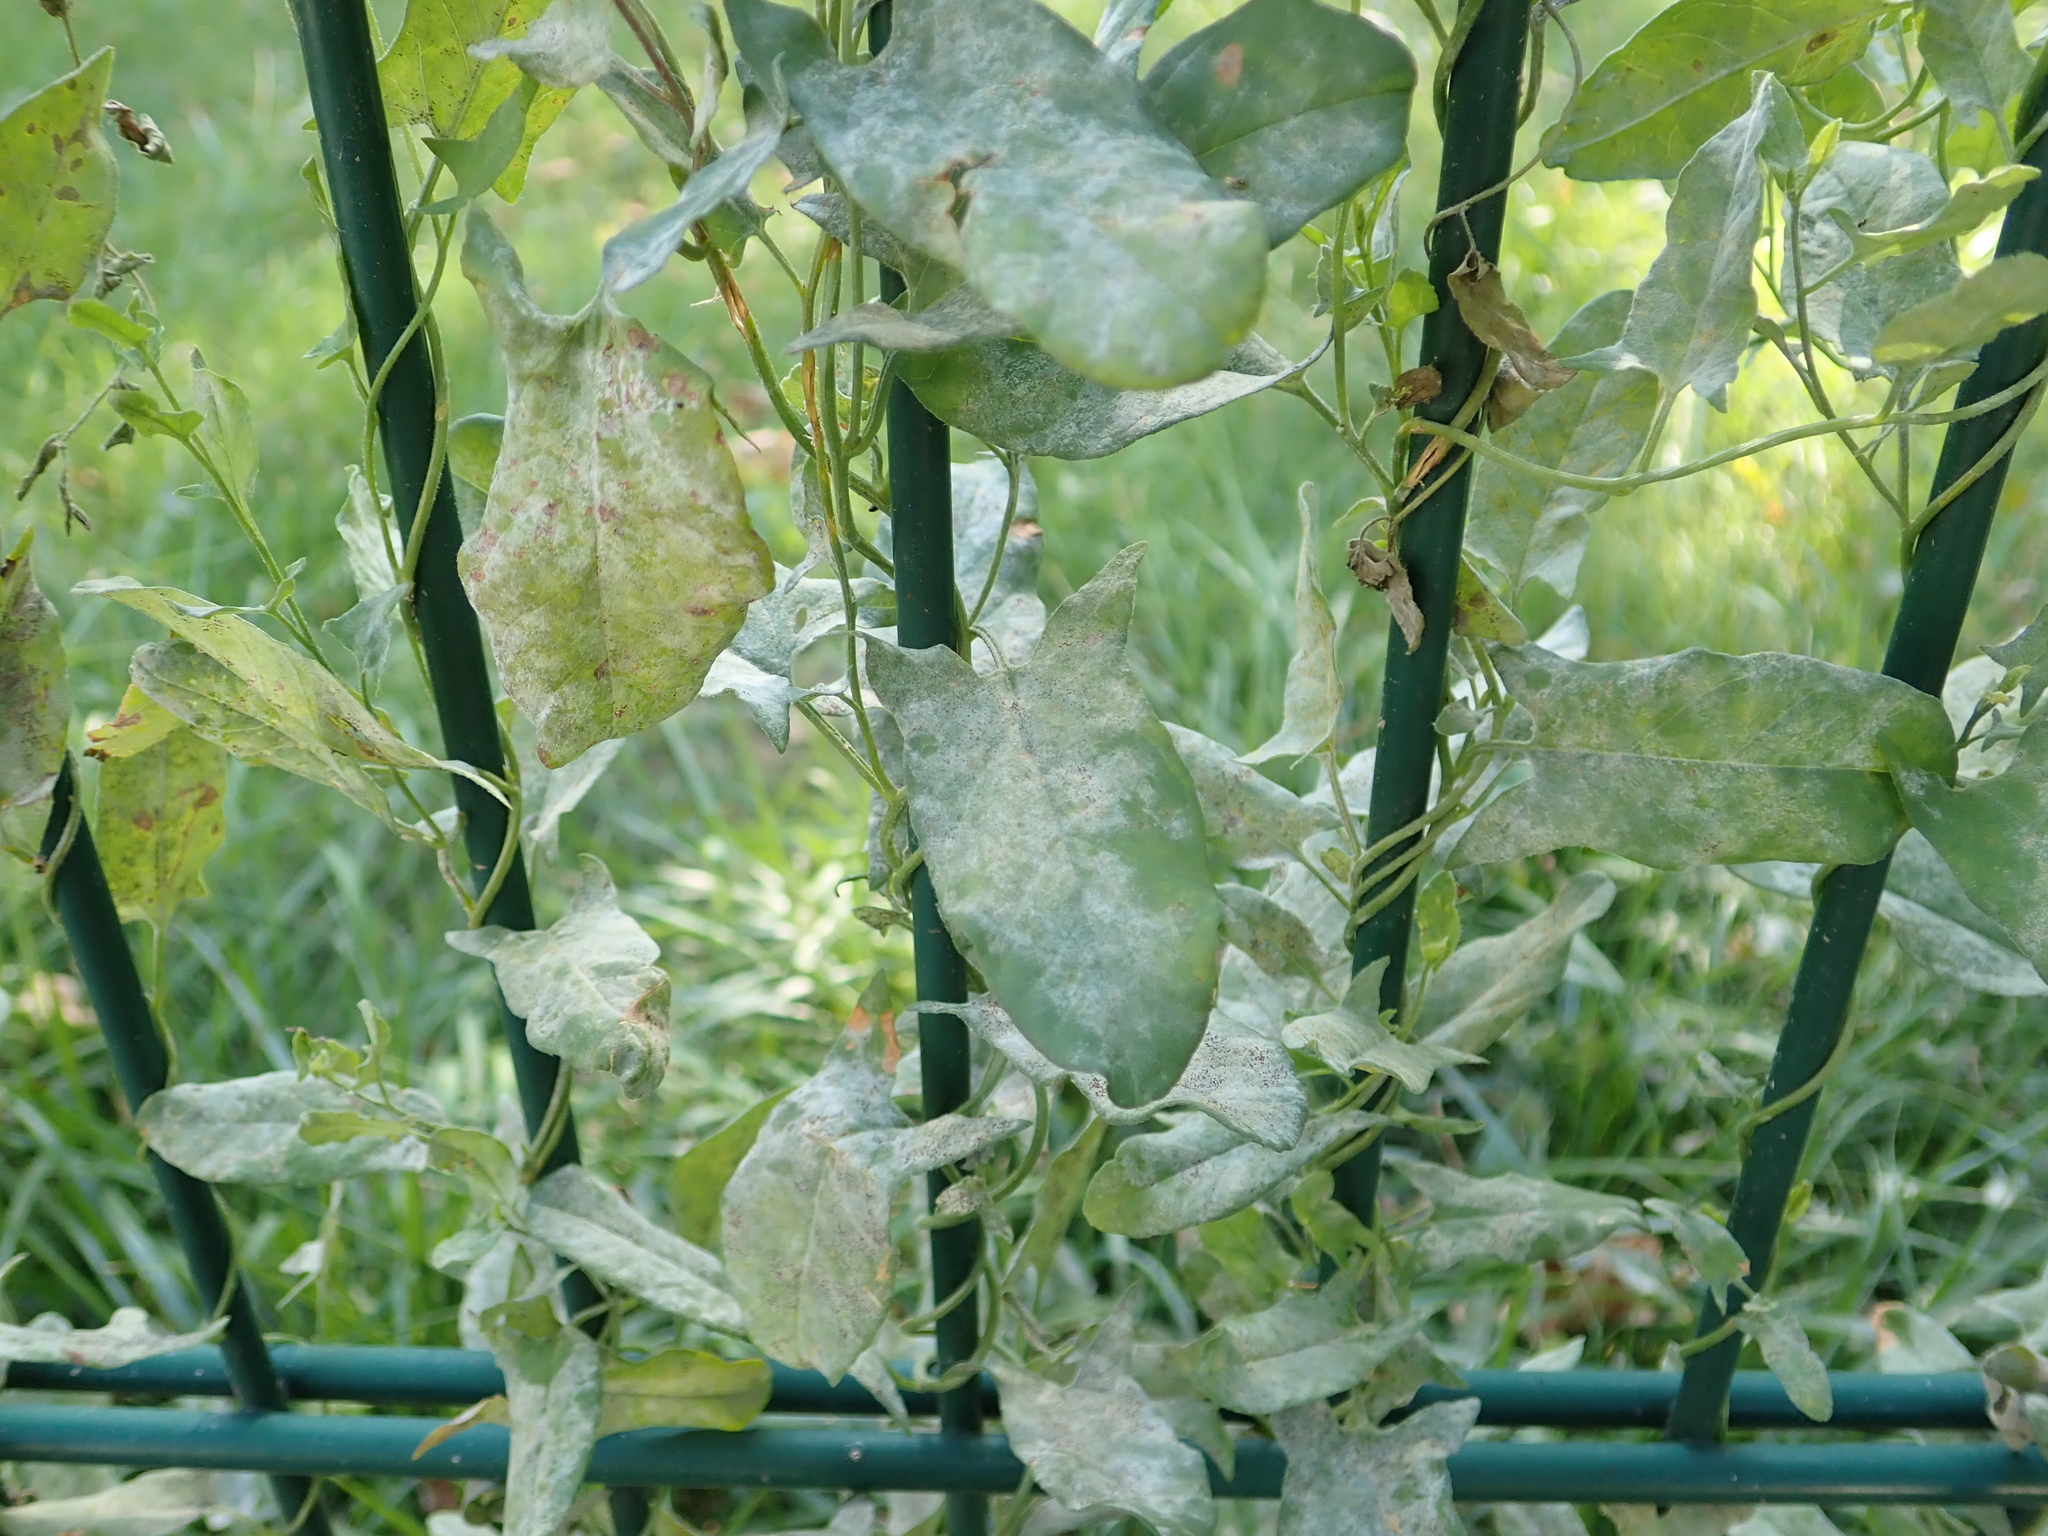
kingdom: Plantae
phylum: Tracheophyta
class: Magnoliopsida
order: Solanales
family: Convolvulaceae
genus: Convolvulus
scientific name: Convolvulus arvensis
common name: Field bindweed
